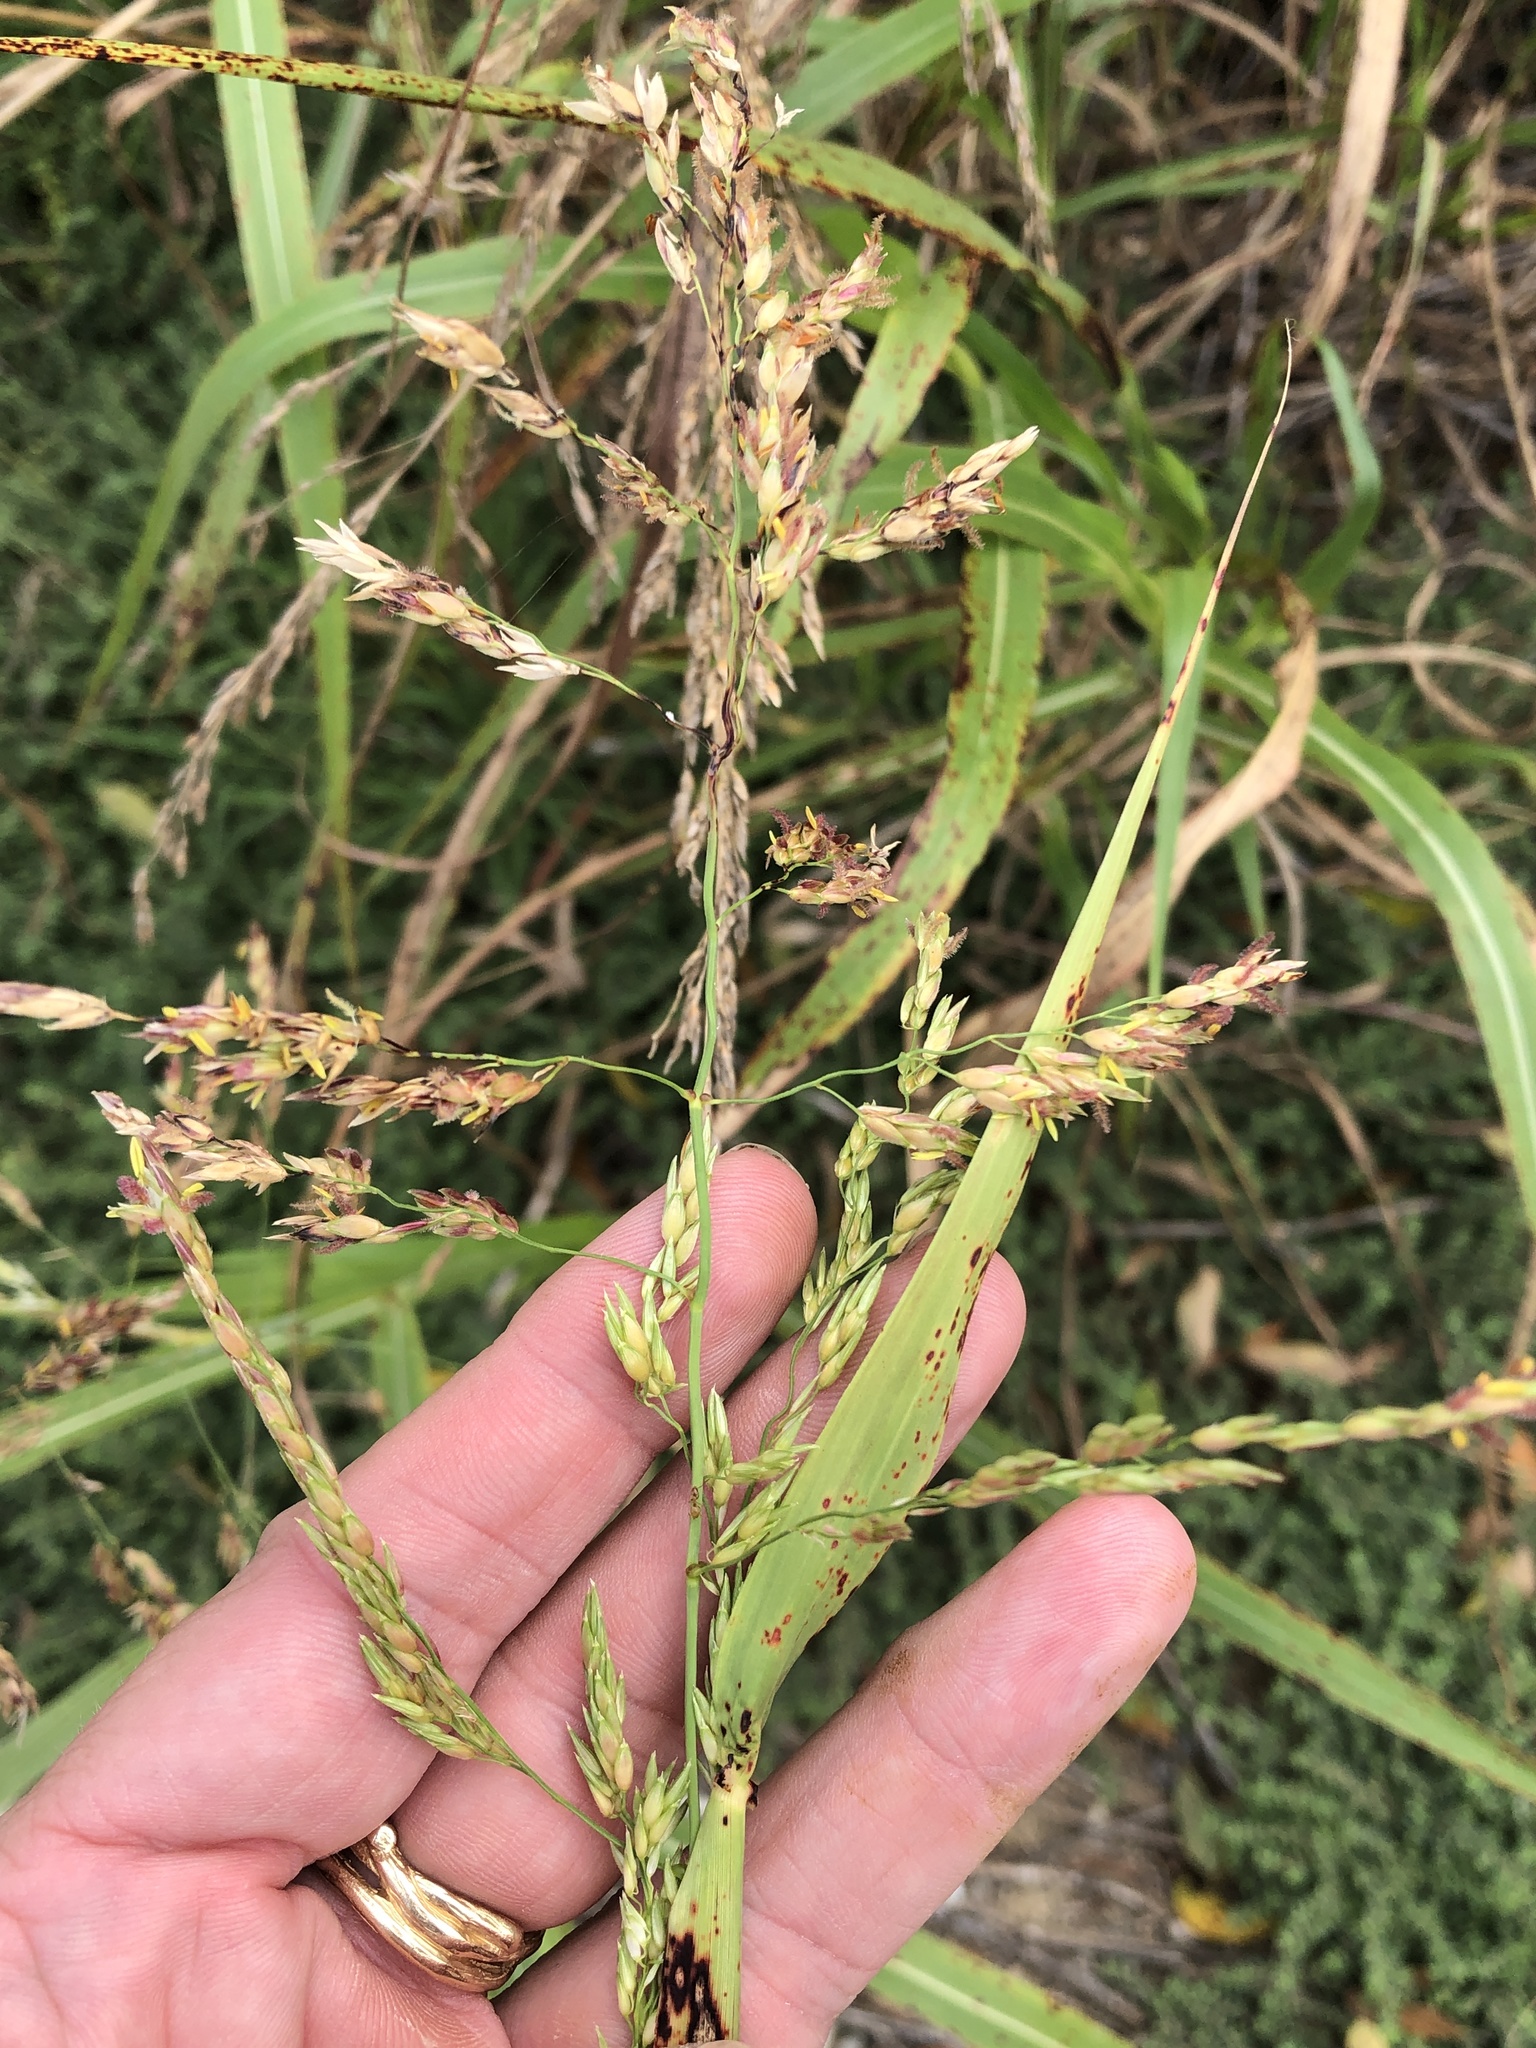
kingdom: Plantae
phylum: Tracheophyta
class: Liliopsida
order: Poales
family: Poaceae
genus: Sorghum
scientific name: Sorghum halepense
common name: Johnson-grass
